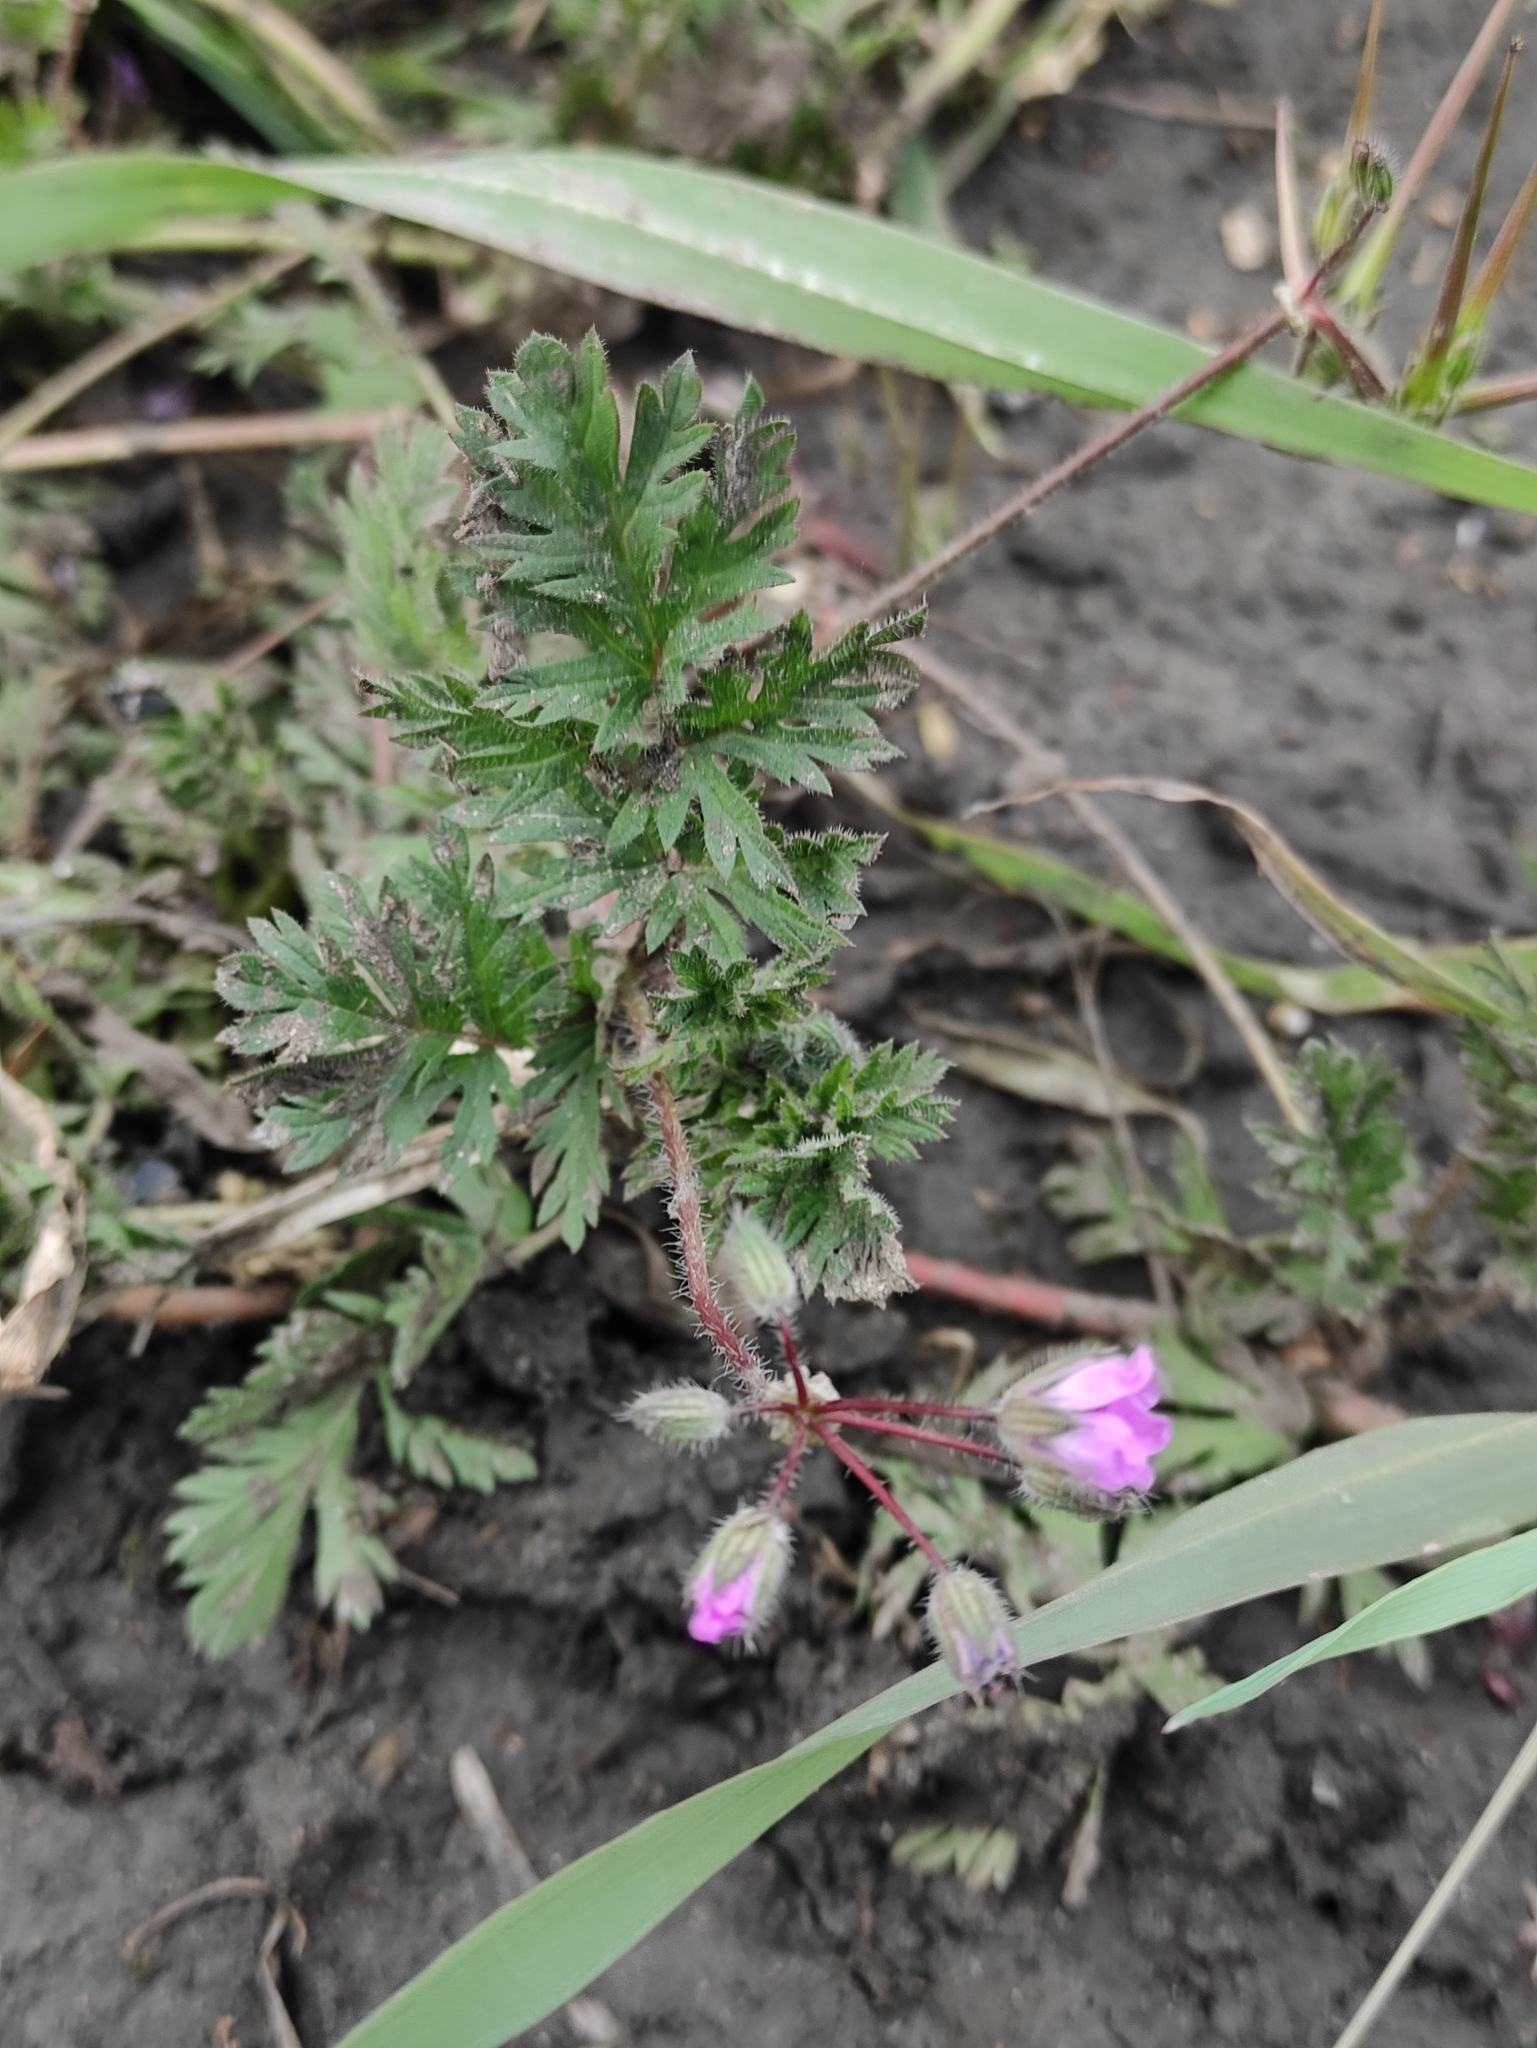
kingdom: Plantae
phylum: Tracheophyta
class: Magnoliopsida
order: Geraniales
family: Geraniaceae
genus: Erodium
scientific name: Erodium cicutarium
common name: Common stork's-bill
